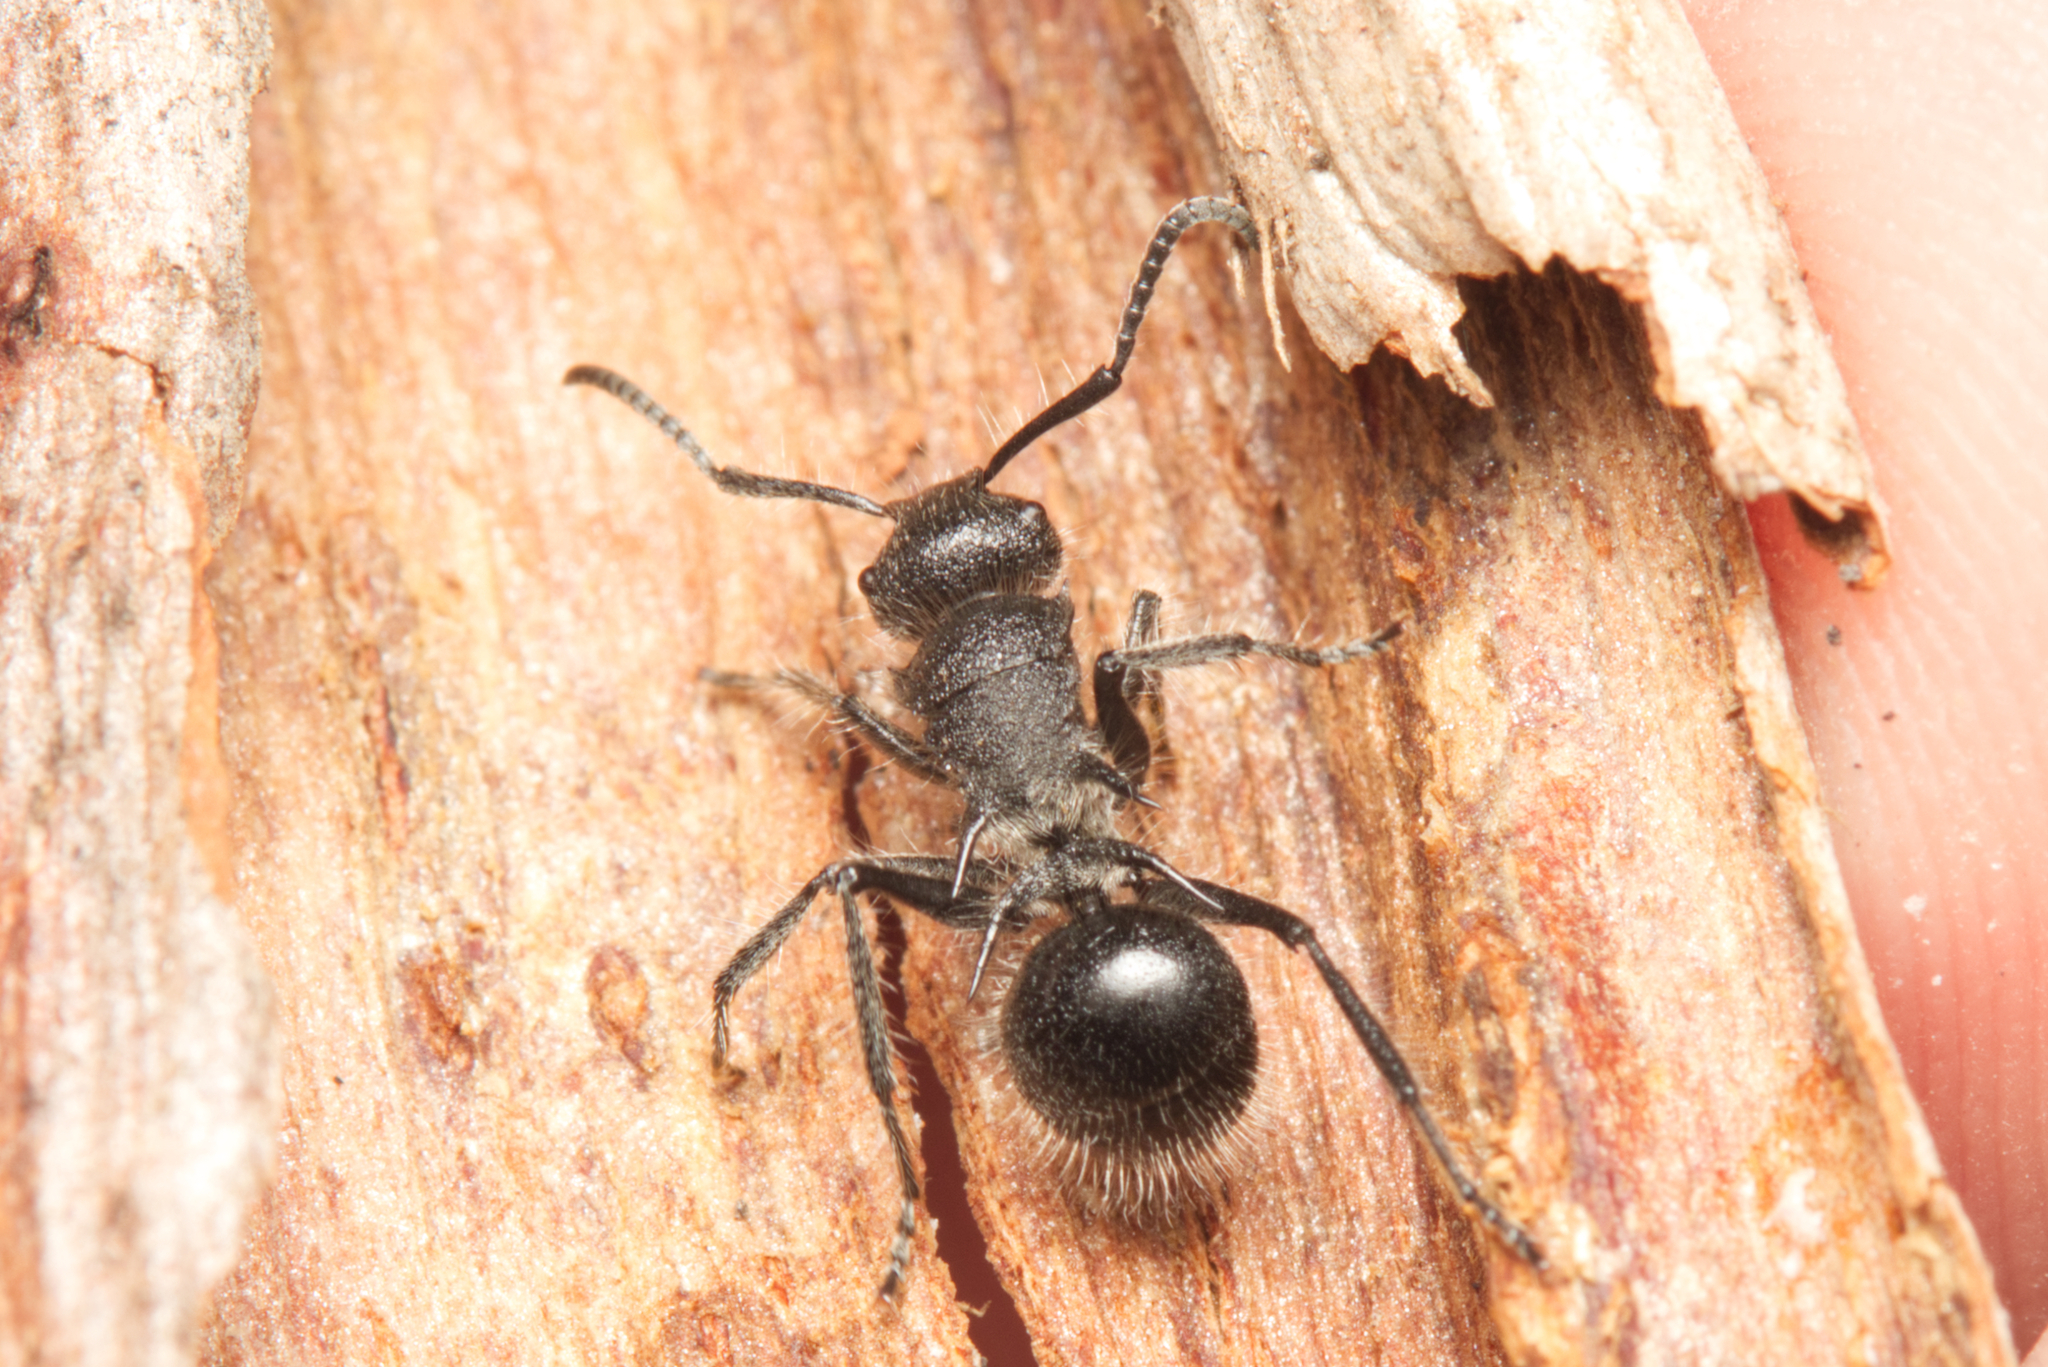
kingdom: Animalia
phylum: Arthropoda
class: Insecta
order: Hymenoptera
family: Formicidae
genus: Polyrhachis
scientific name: Polyrhachis punctiventris
